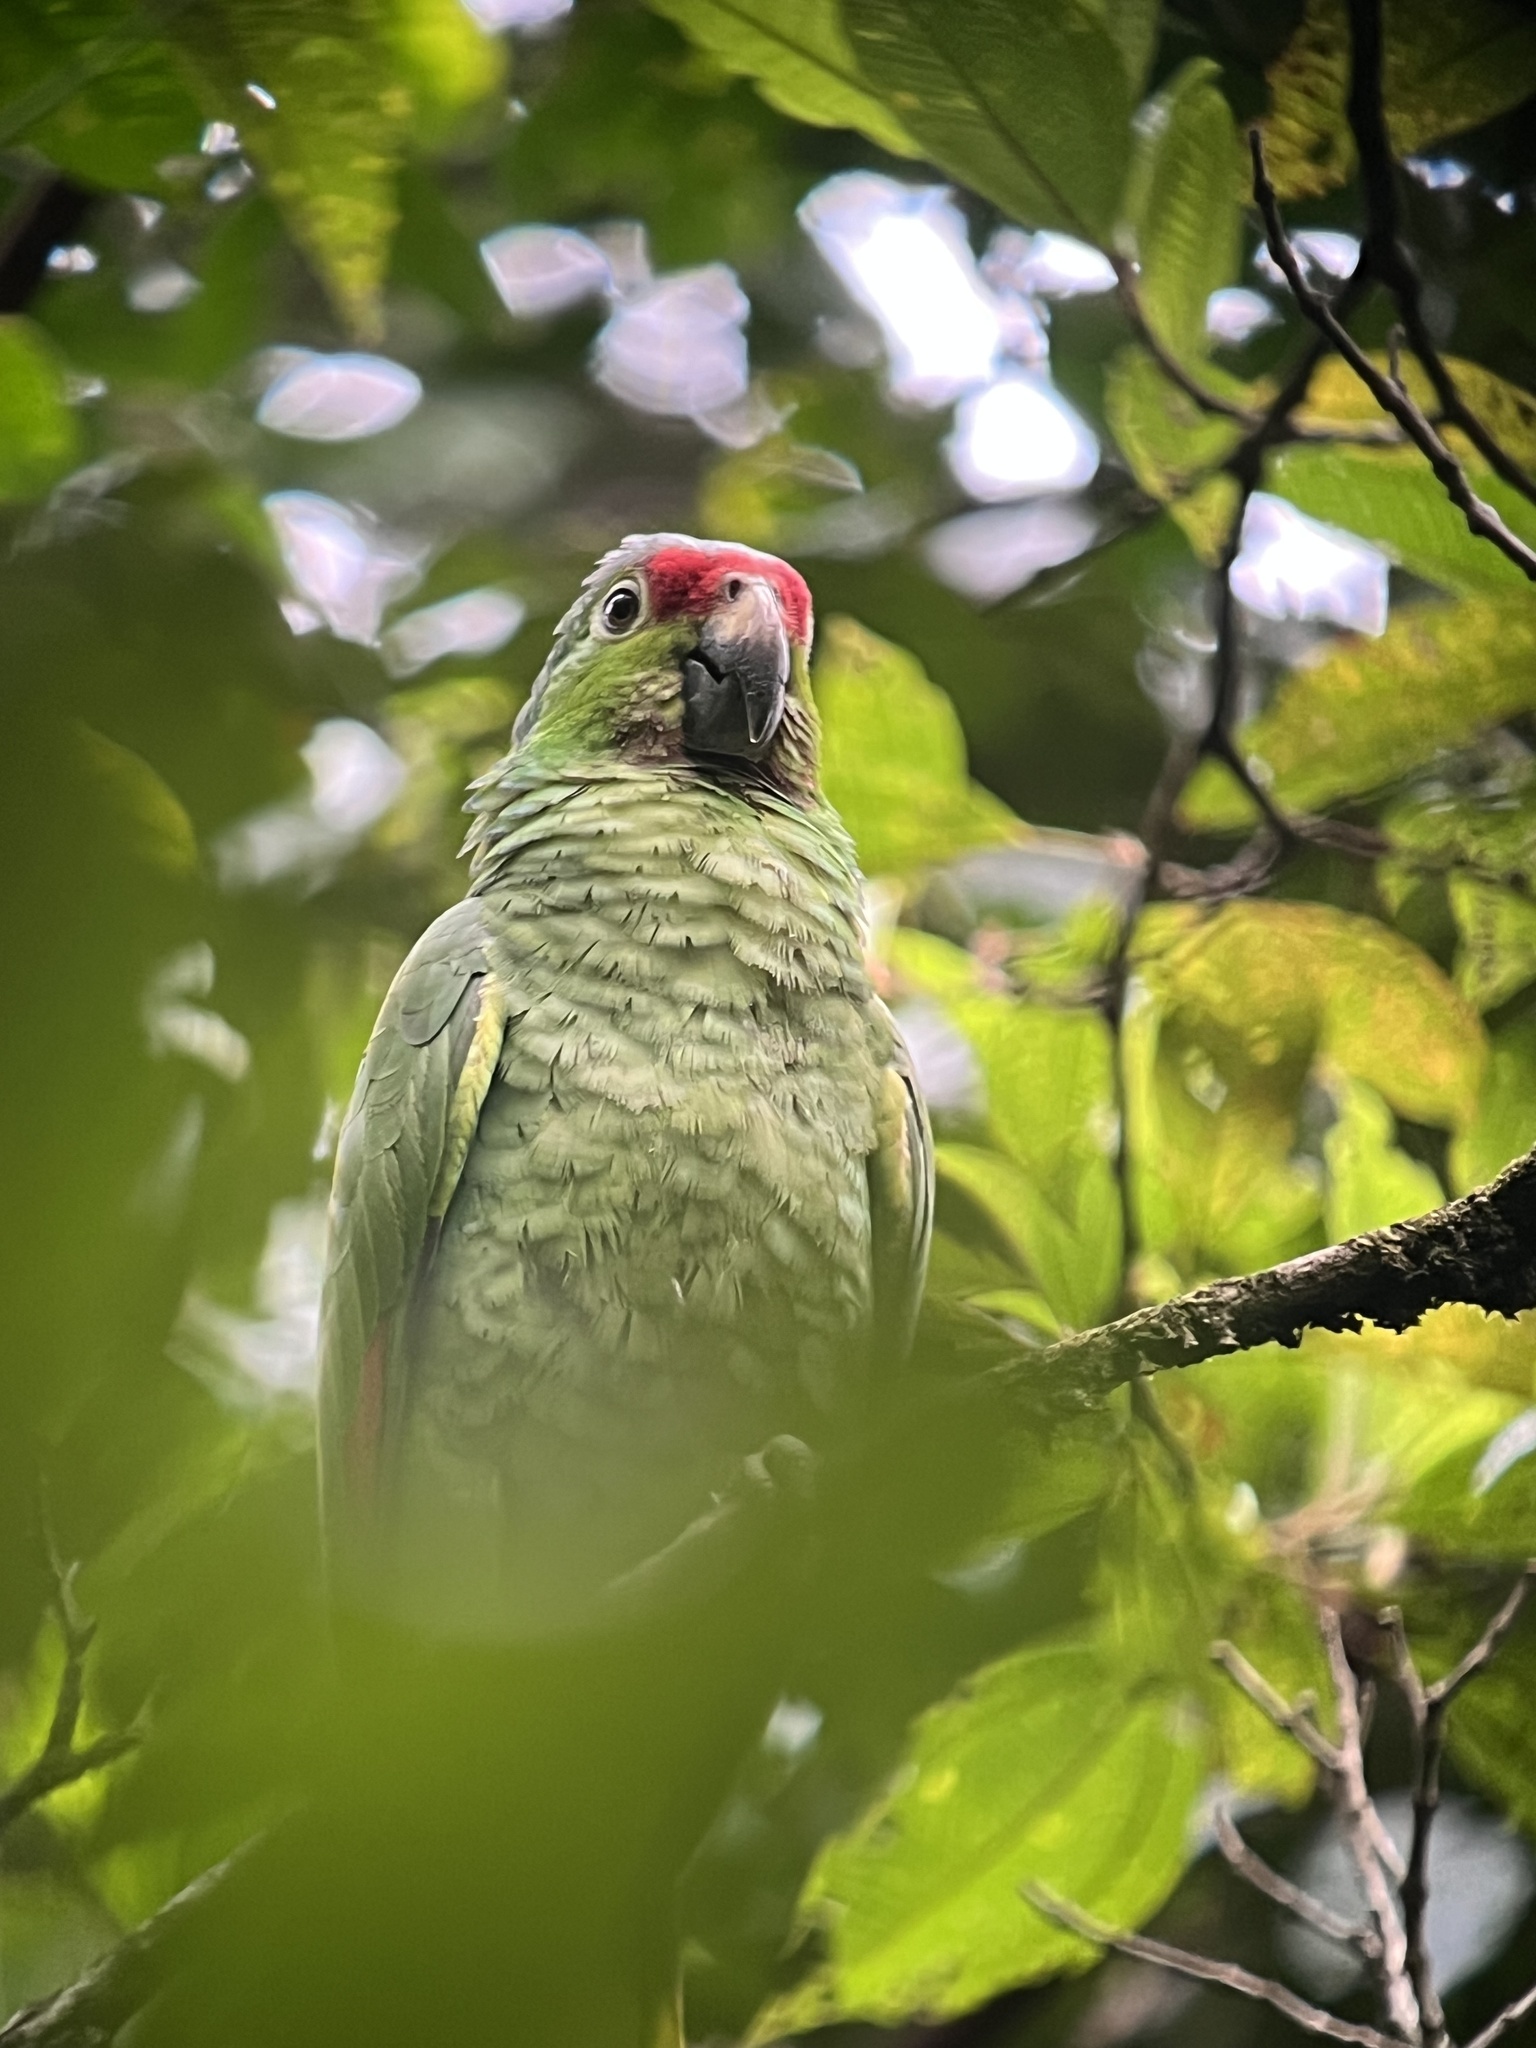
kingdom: Animalia
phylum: Chordata
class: Aves
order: Psittaciformes
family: Psittacidae
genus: Amazona
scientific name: Amazona autumnalis
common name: Red-lored amazon
